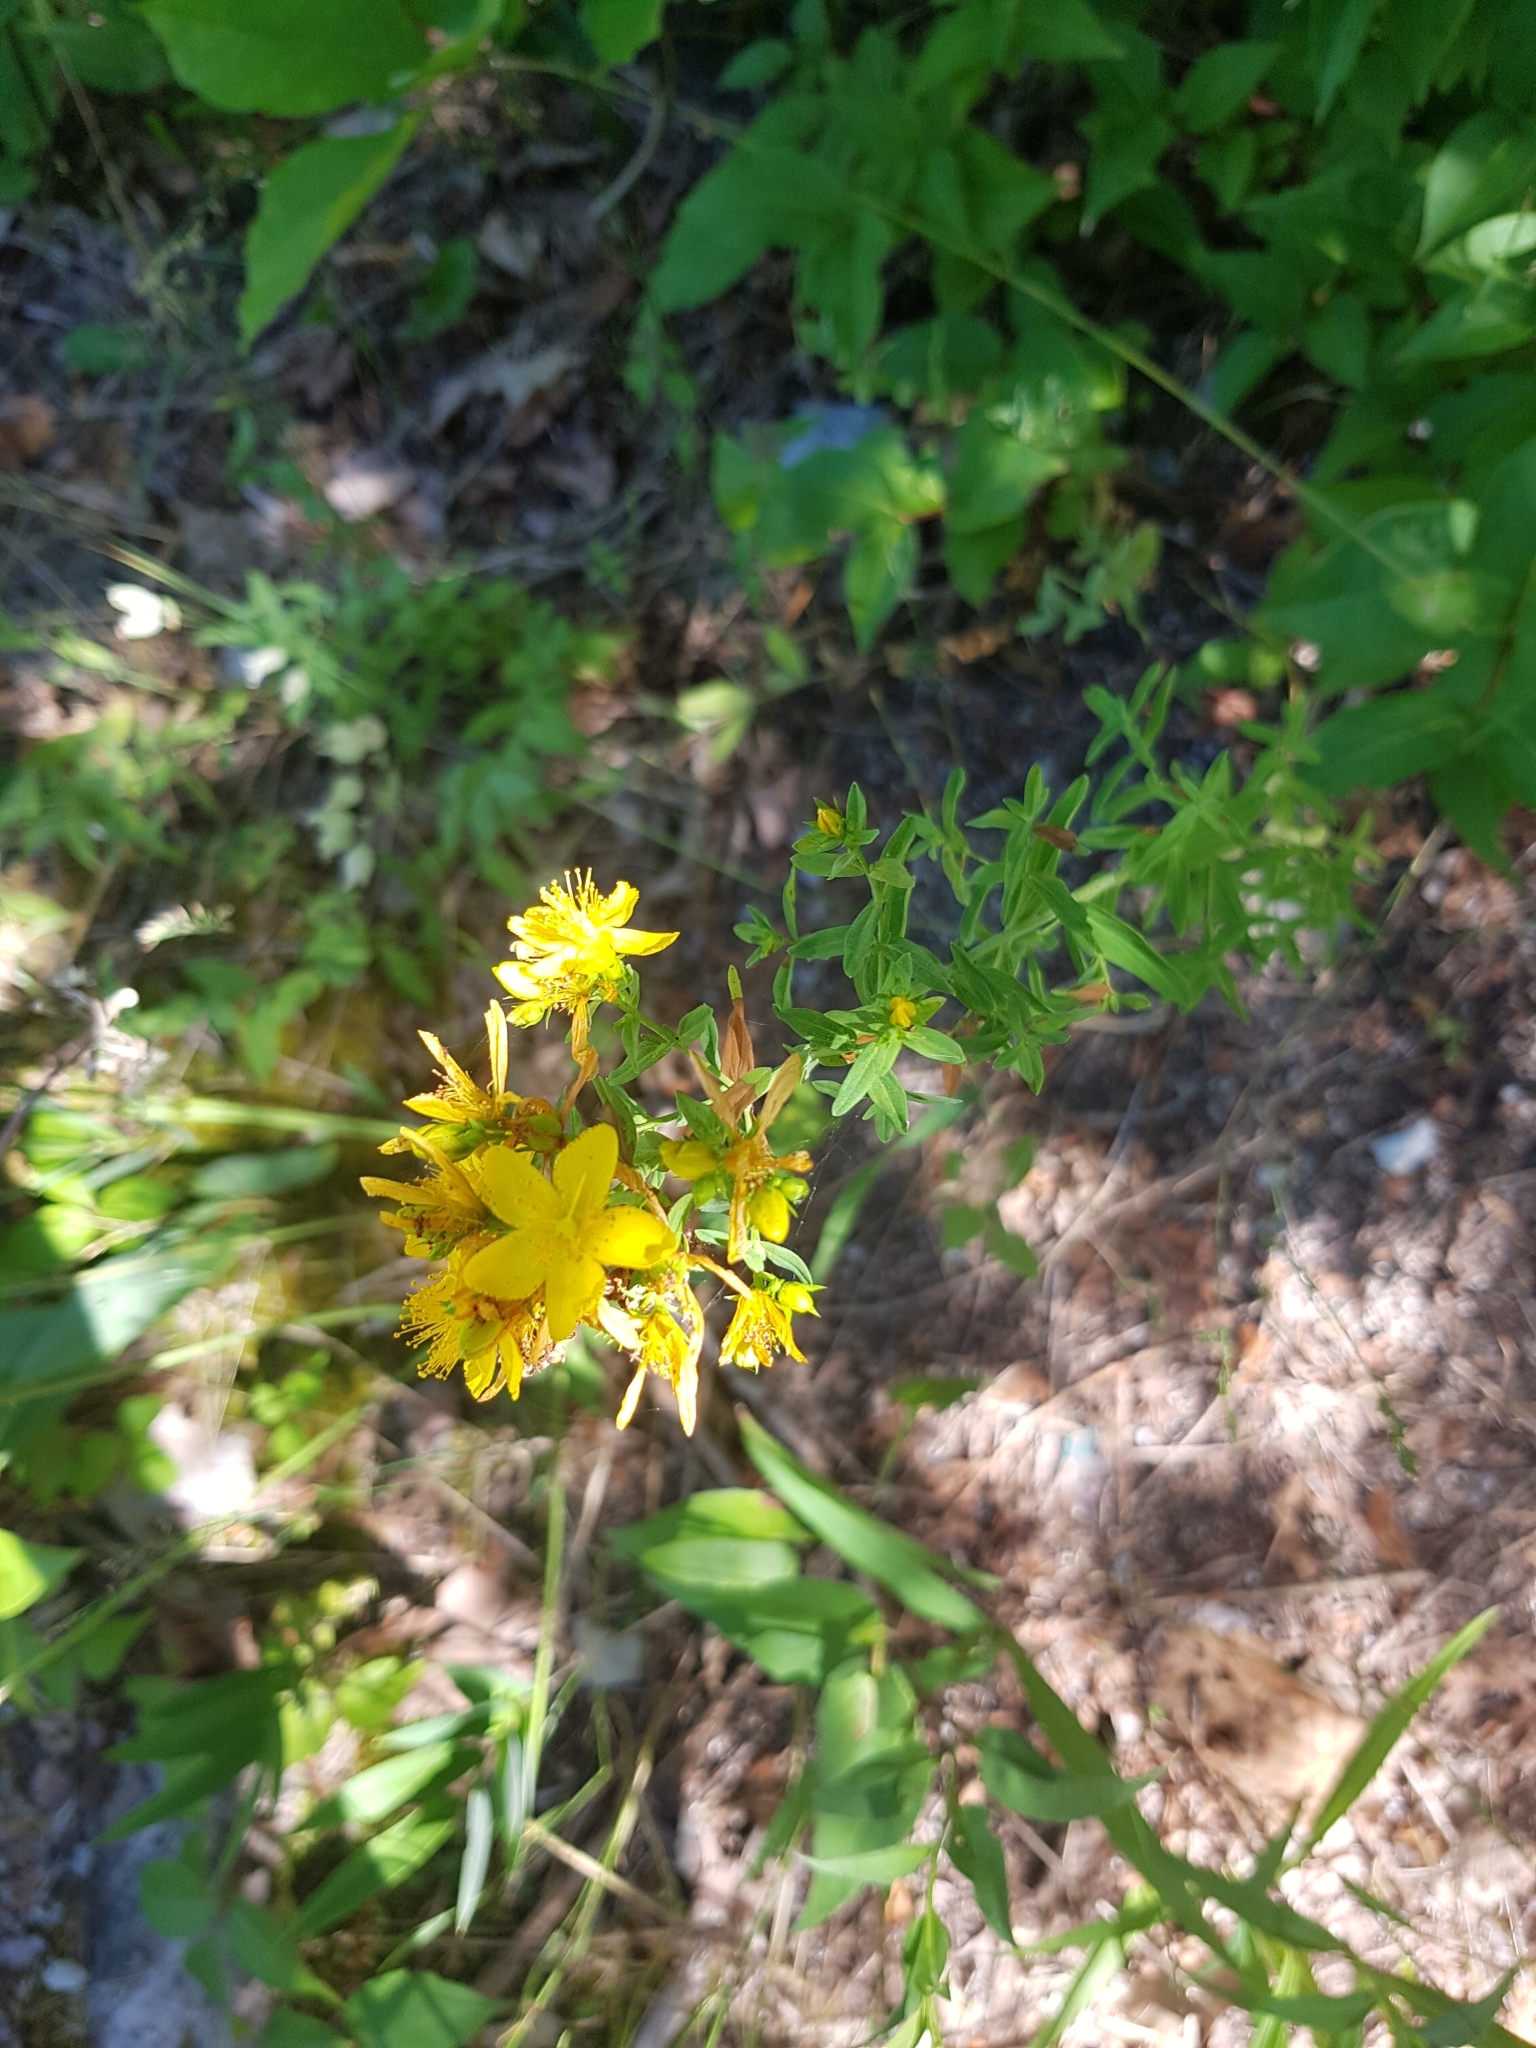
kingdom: Plantae
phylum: Tracheophyta
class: Magnoliopsida
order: Malpighiales
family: Hypericaceae
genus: Hypericum
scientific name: Hypericum perforatum
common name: Common st. johnswort
